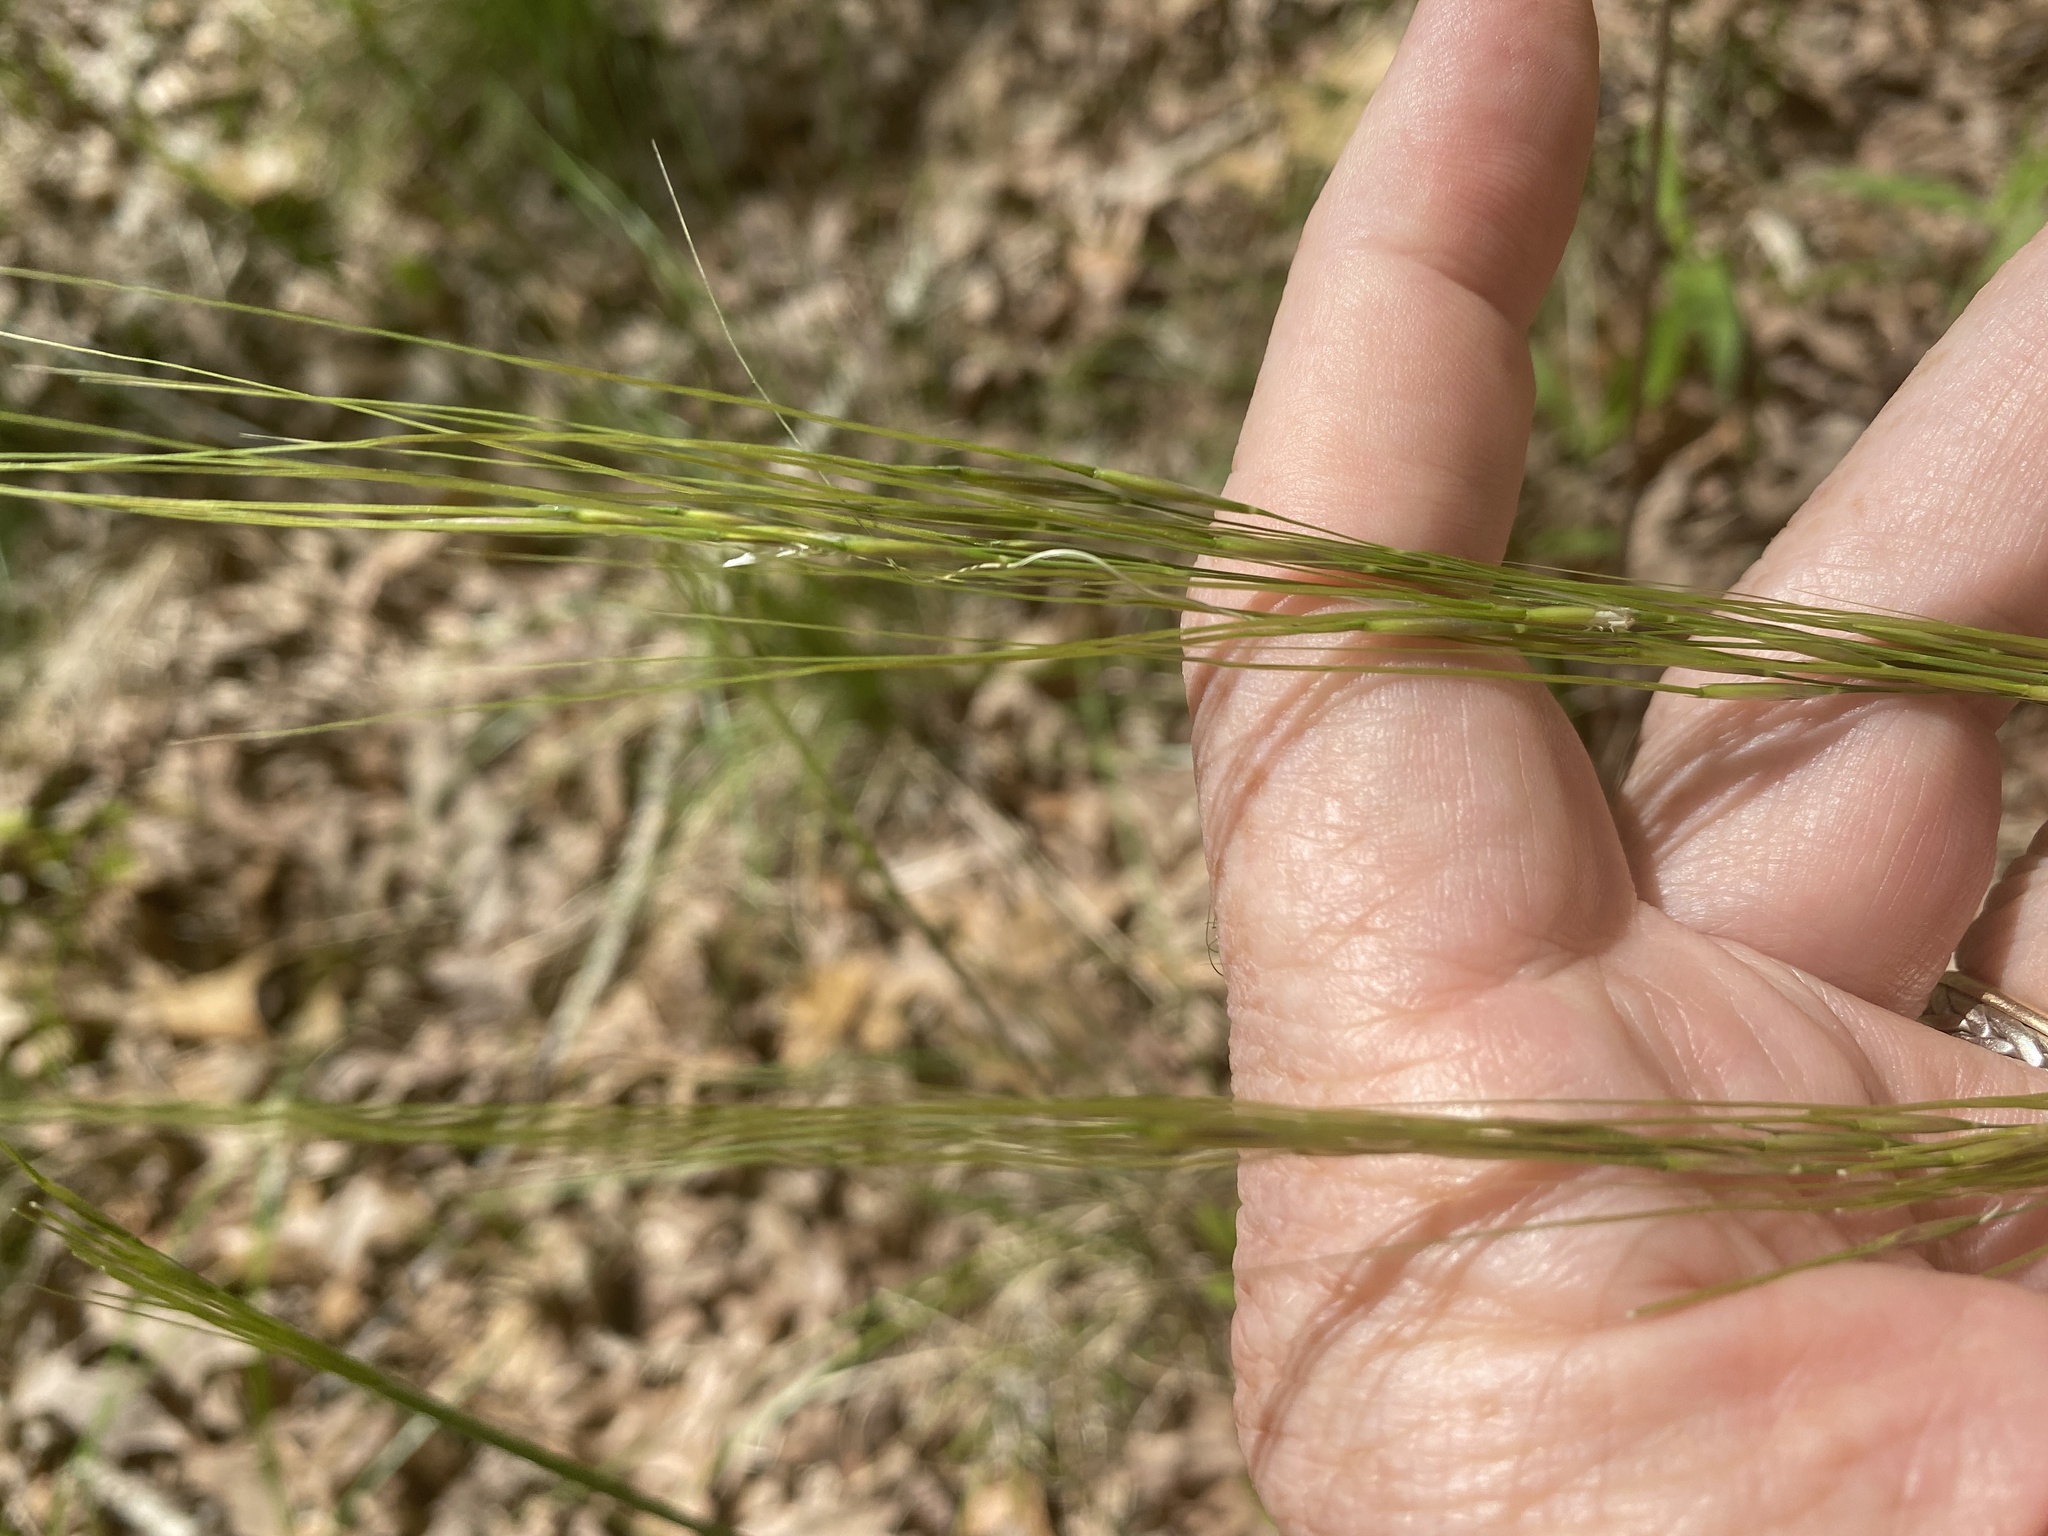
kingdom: Plantae
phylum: Tracheophyta
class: Liliopsida
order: Poales
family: Poaceae
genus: Piptochaetium
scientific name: Piptochaetium avenaceum
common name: Black bunchgrass
